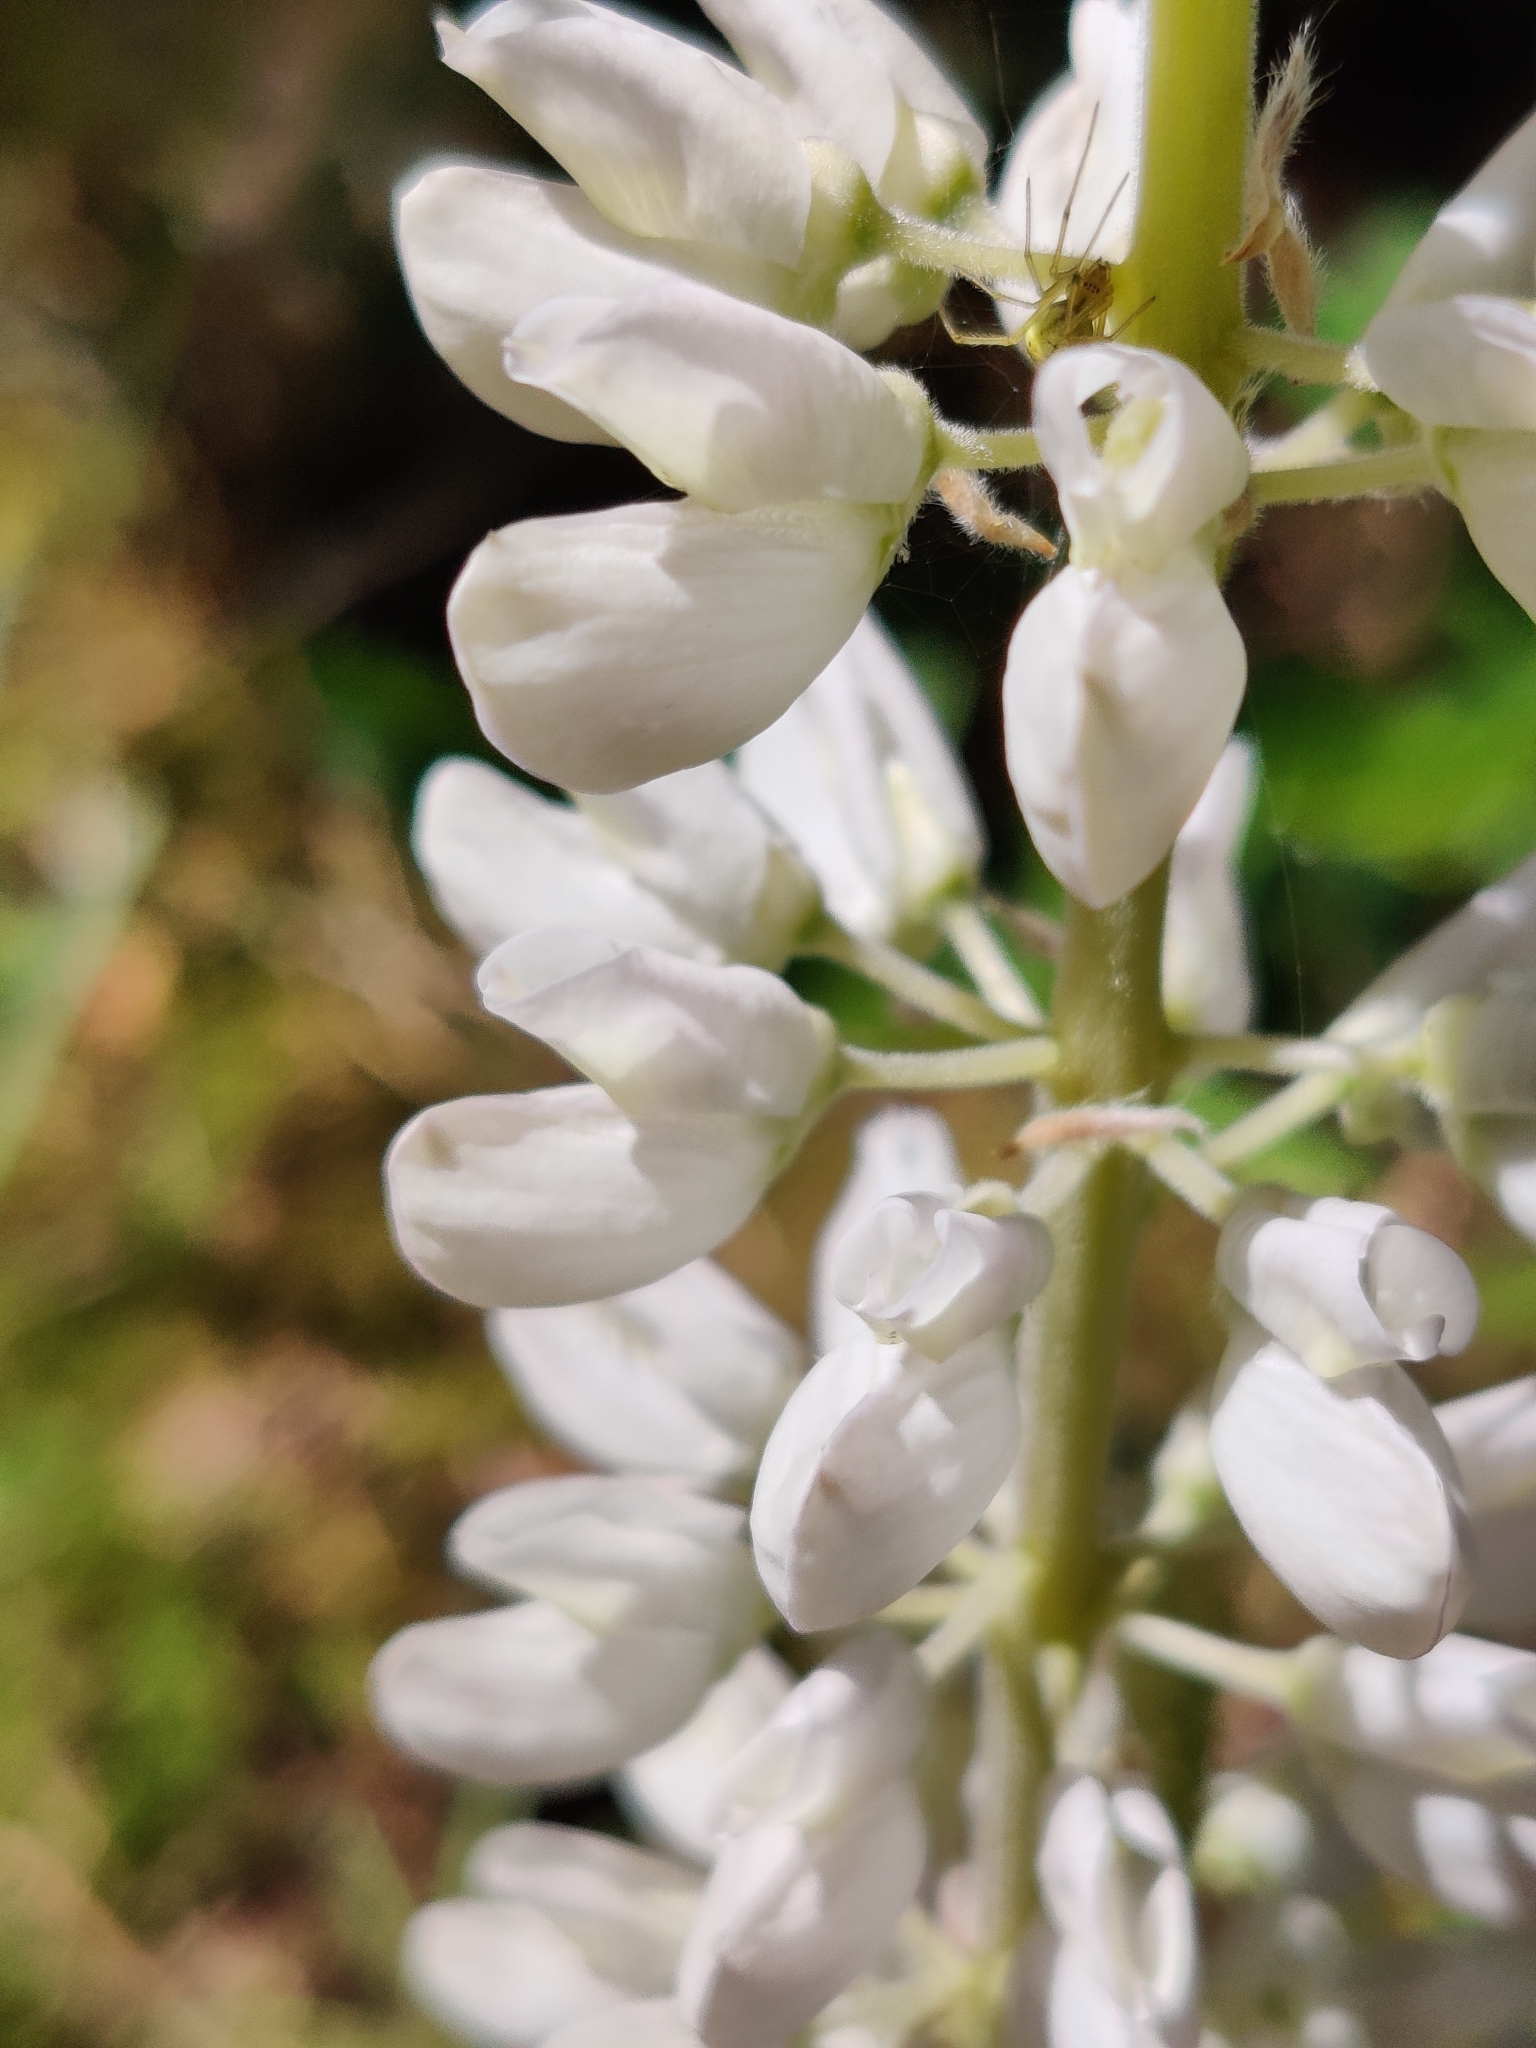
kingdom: Animalia
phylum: Arthropoda
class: Arachnida
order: Araneae
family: Theridiidae
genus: Enoplognatha
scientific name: Enoplognatha
